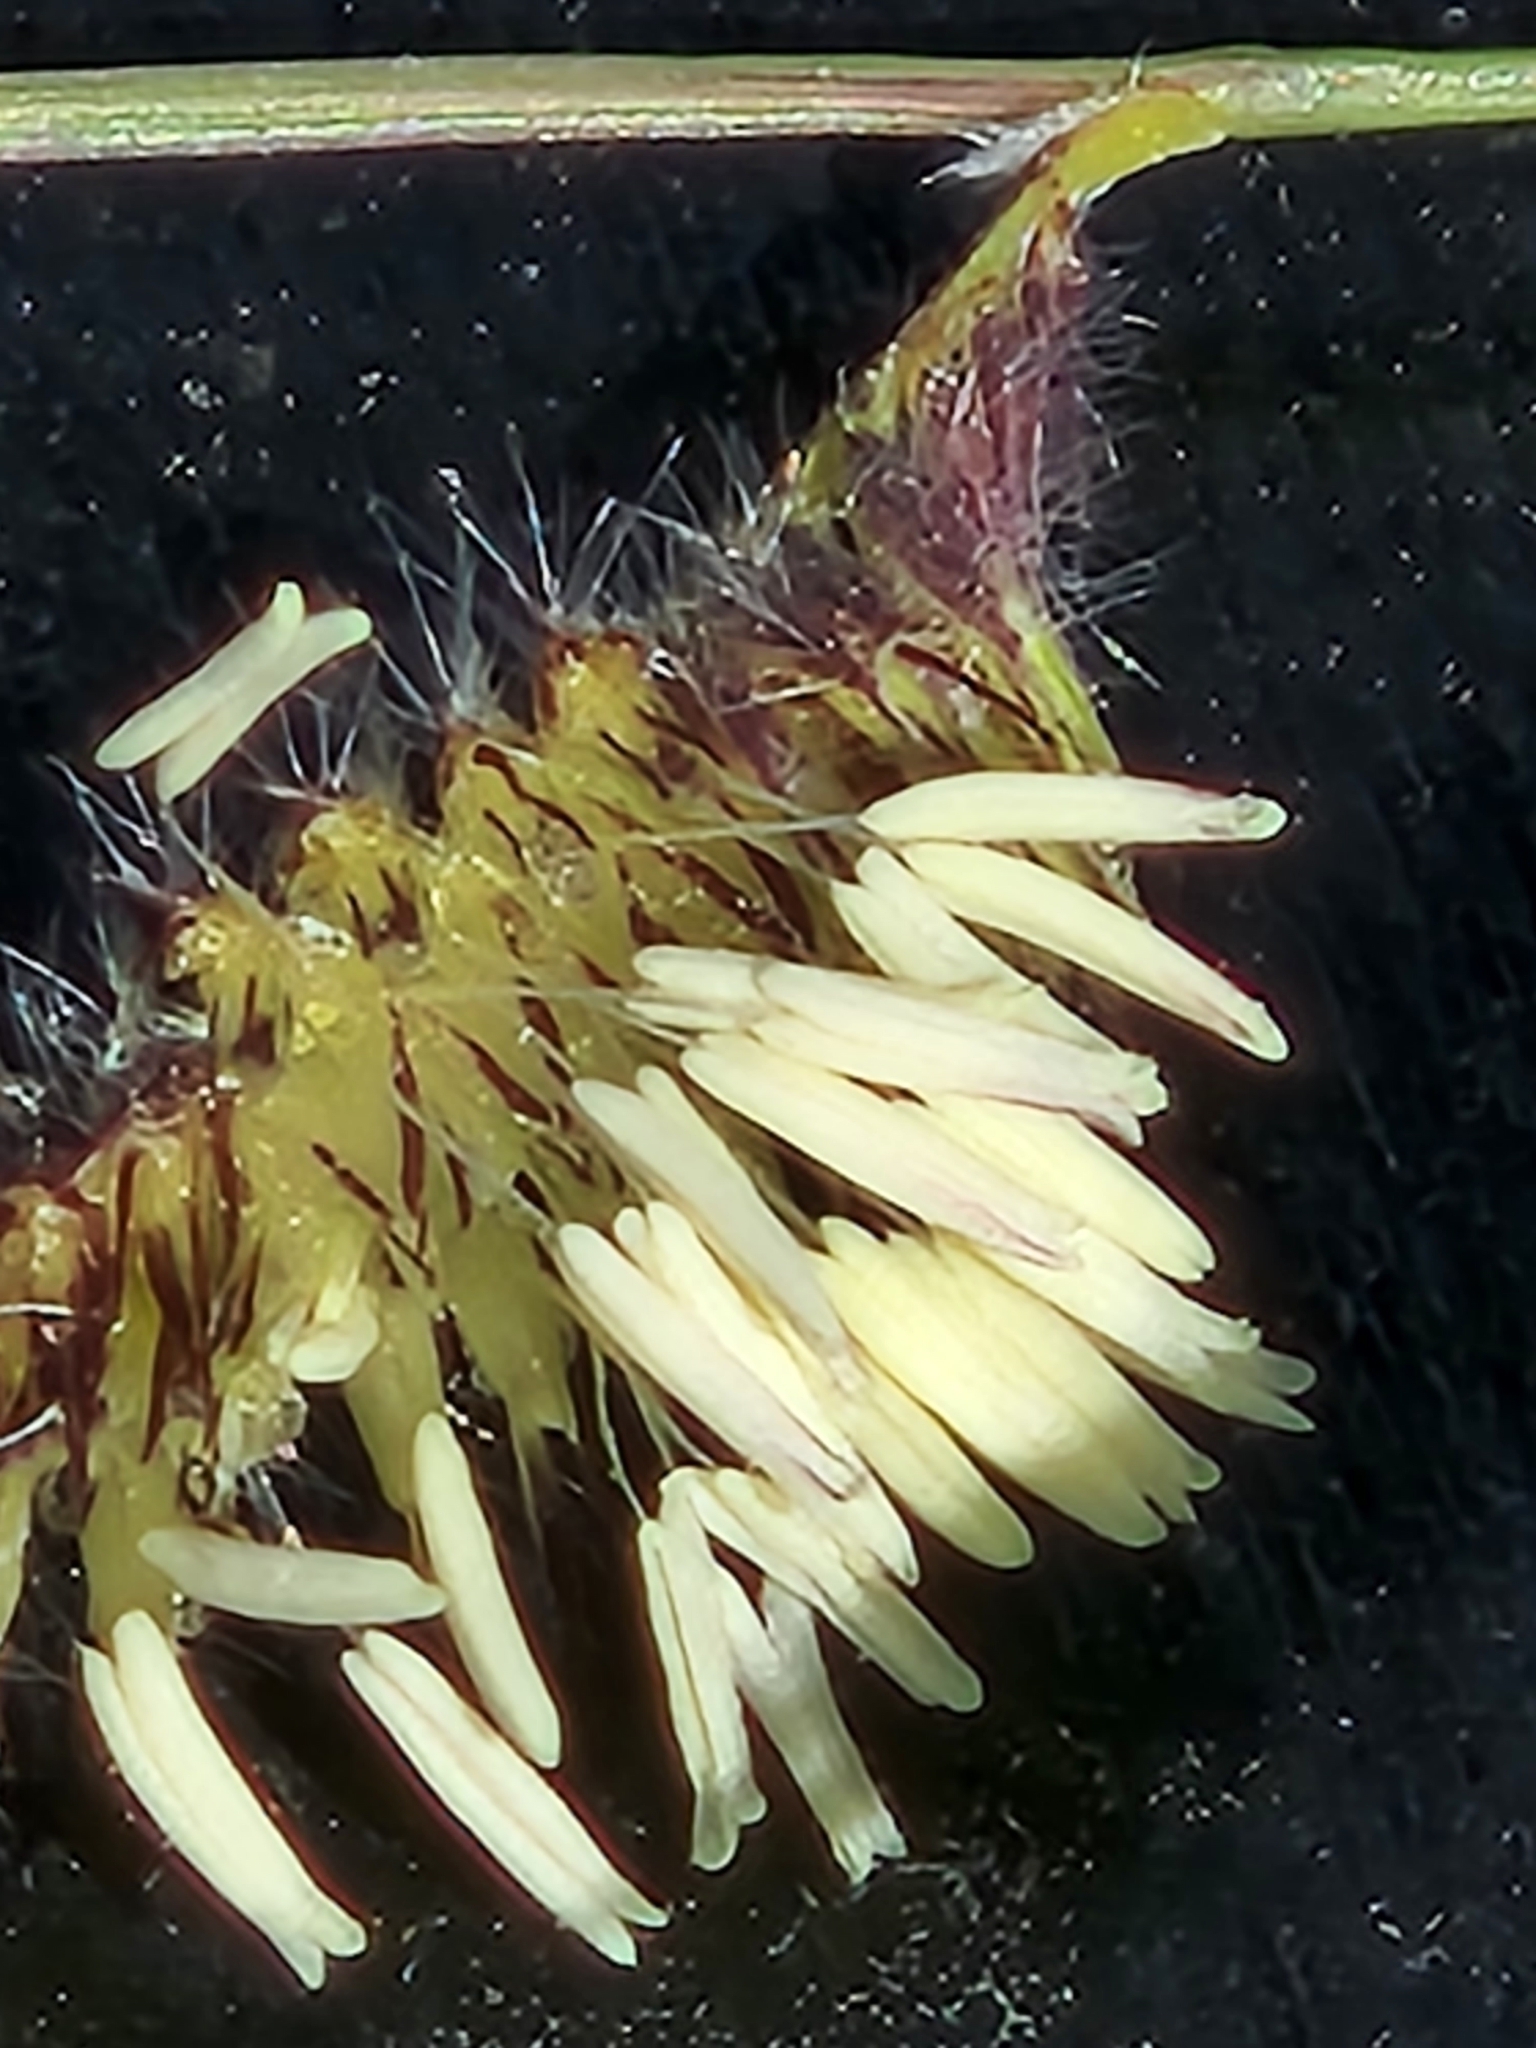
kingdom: Plantae
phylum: Tracheophyta
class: Liliopsida
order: Poales
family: Poaceae
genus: Bouteloua
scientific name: Bouteloua hirsuta
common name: Hairy grama
